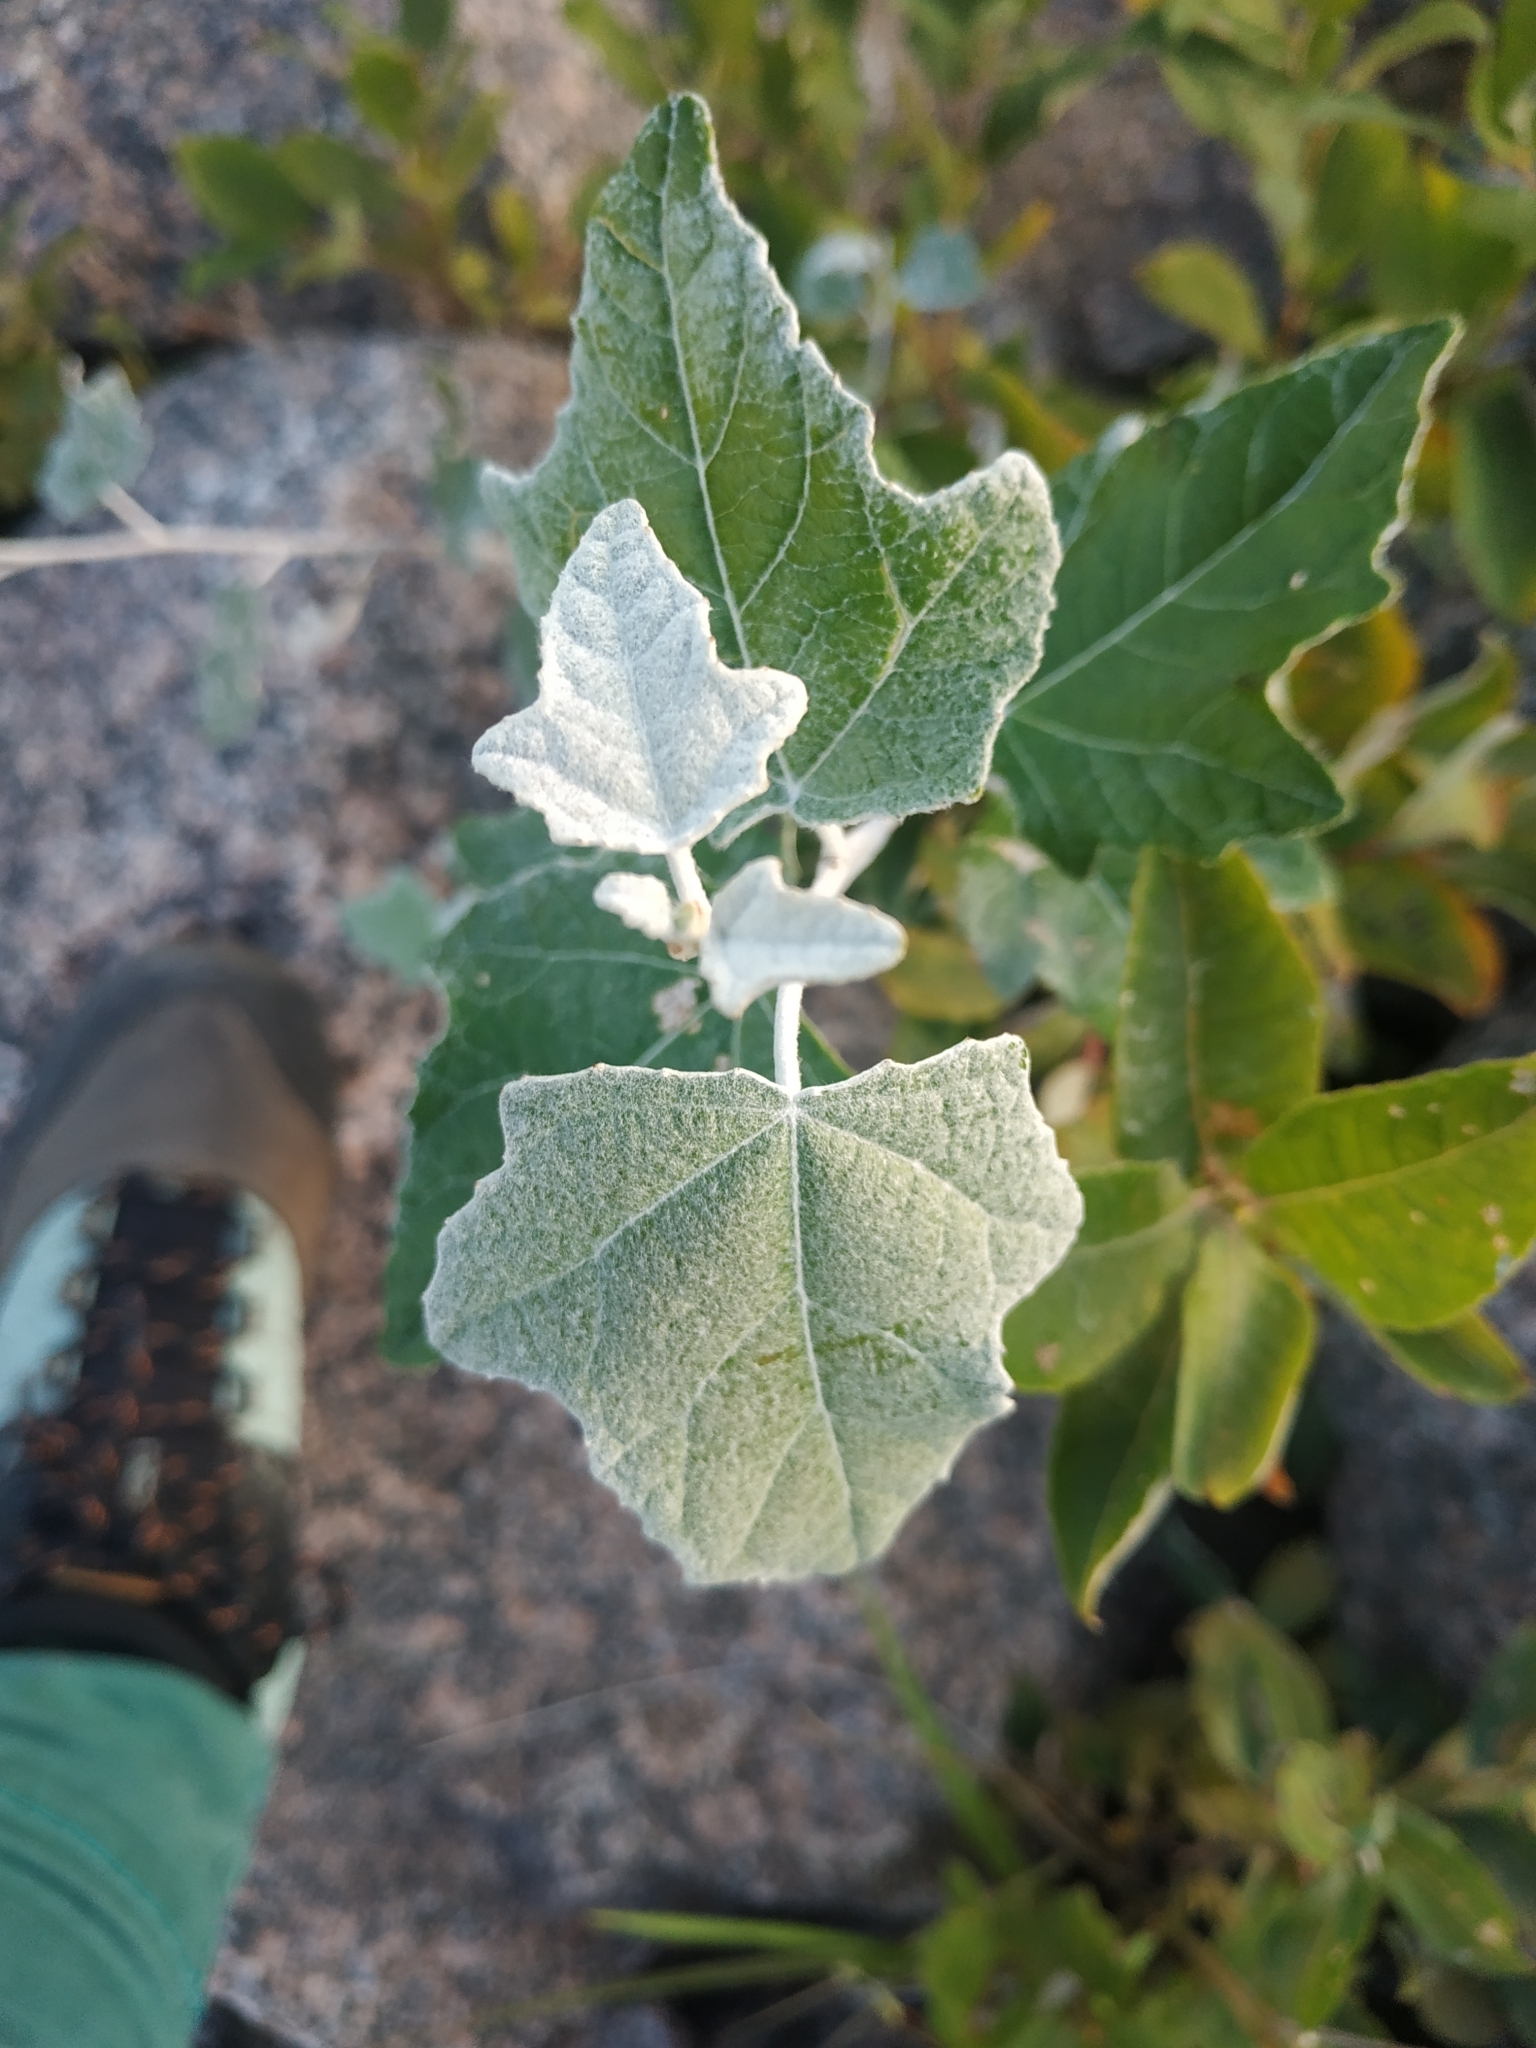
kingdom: Plantae
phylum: Tracheophyta
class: Magnoliopsida
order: Malpighiales
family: Salicaceae
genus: Populus
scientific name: Populus alba
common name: White poplar
